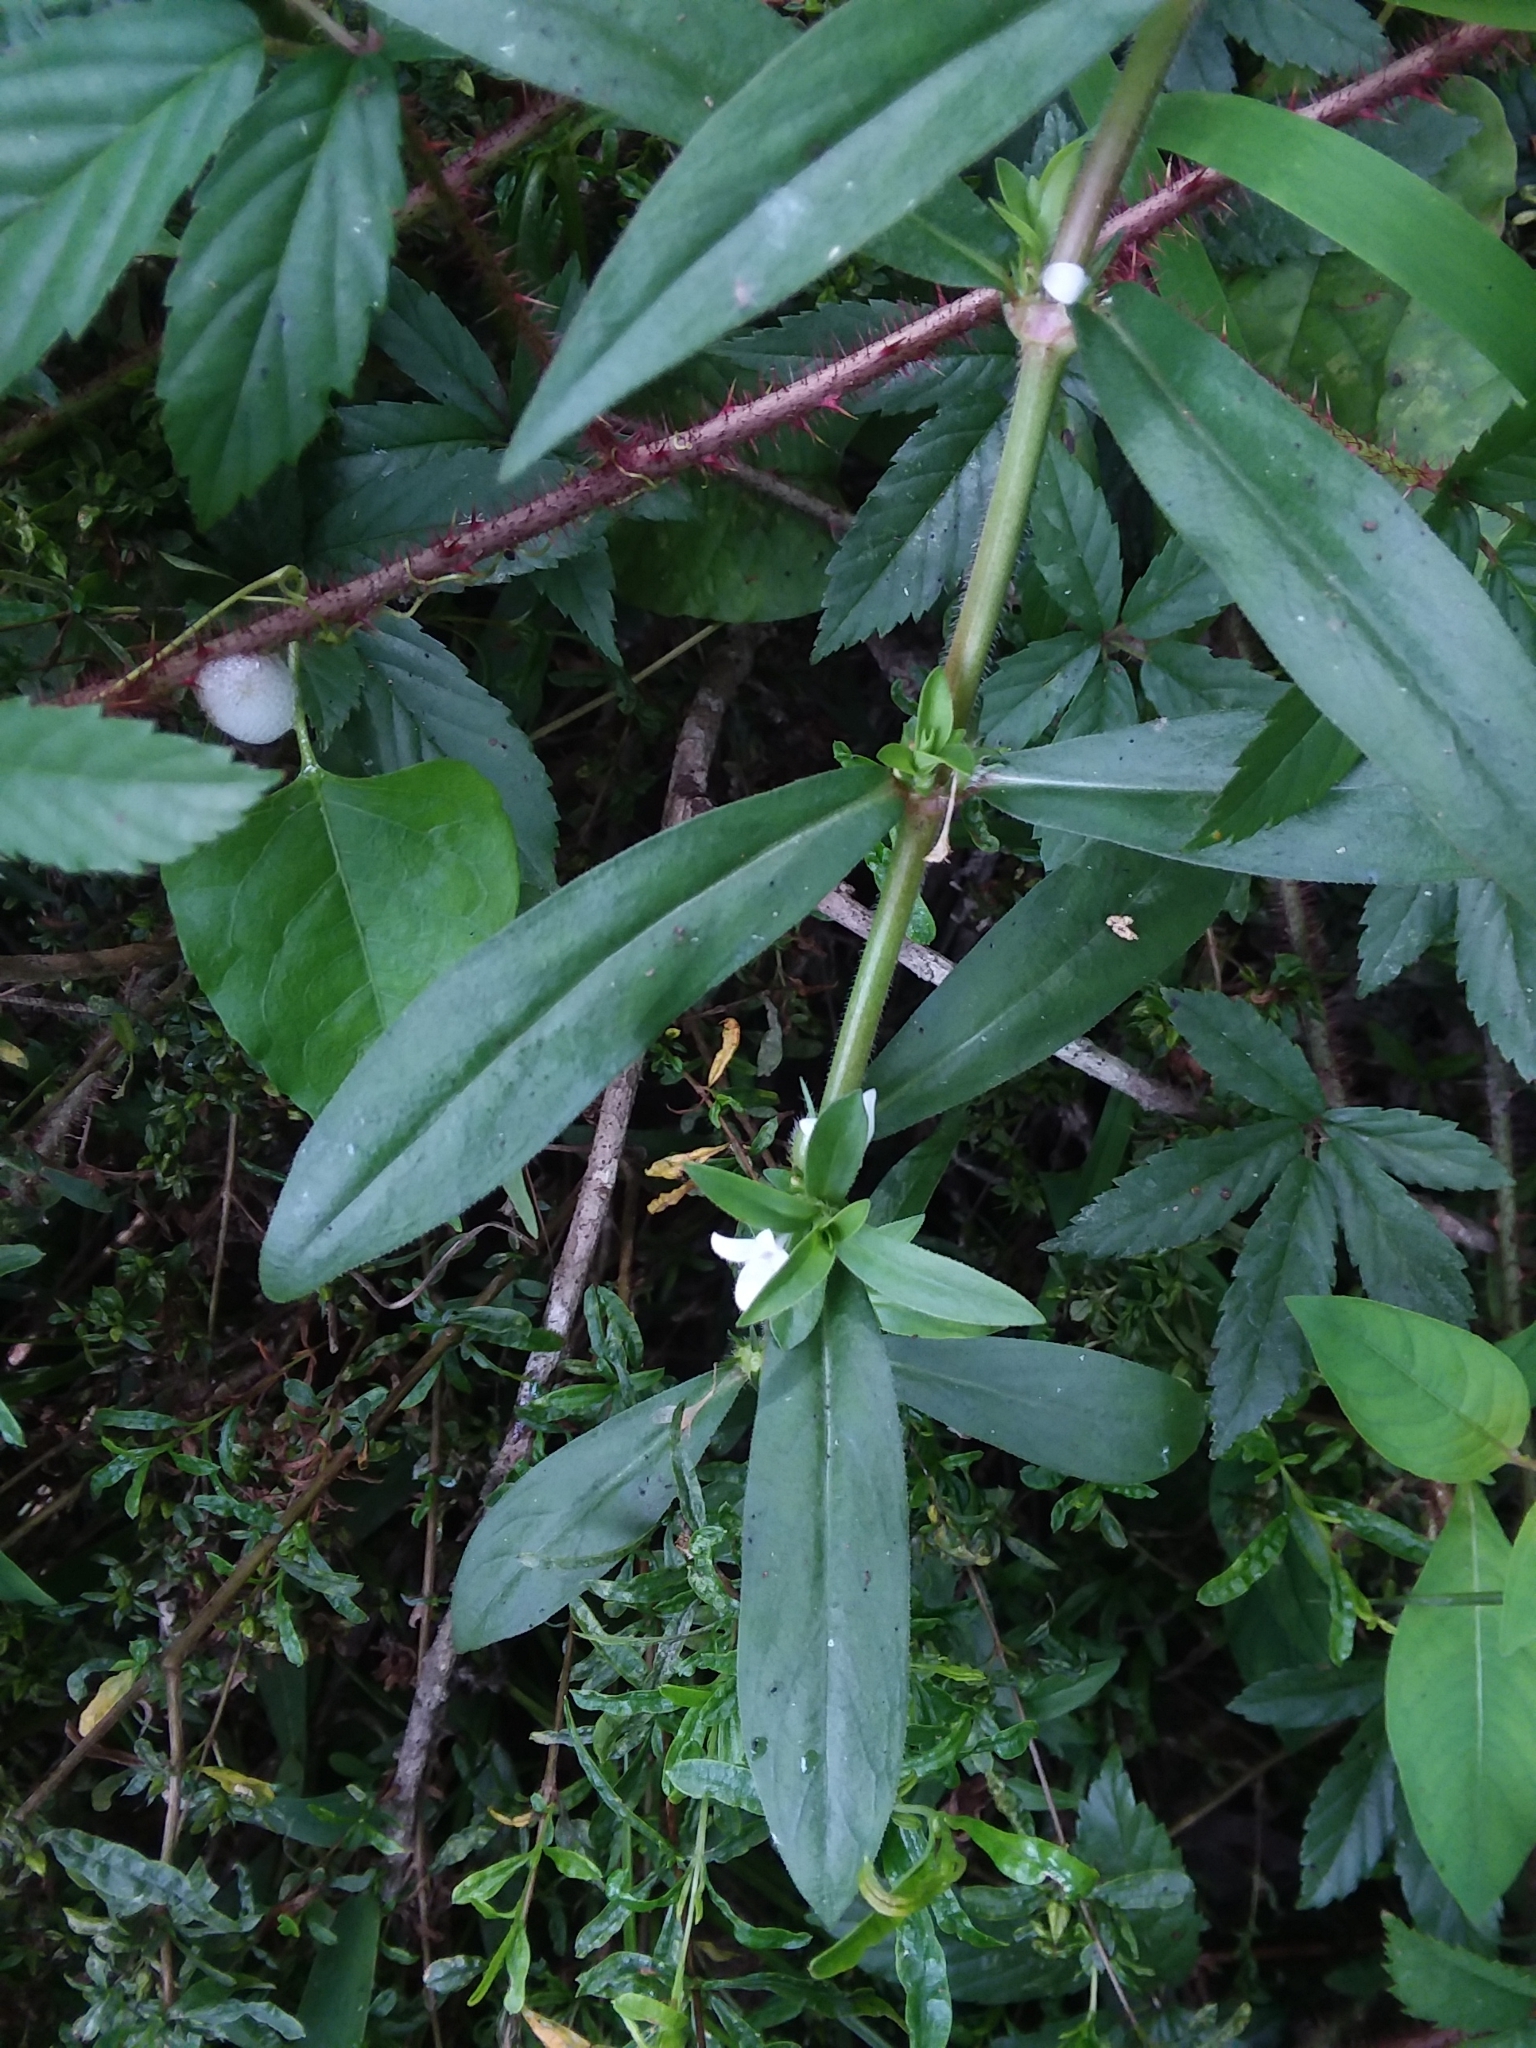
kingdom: Plantae
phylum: Tracheophyta
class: Magnoliopsida
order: Gentianales
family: Rubiaceae
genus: Diodia
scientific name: Diodia virginiana
